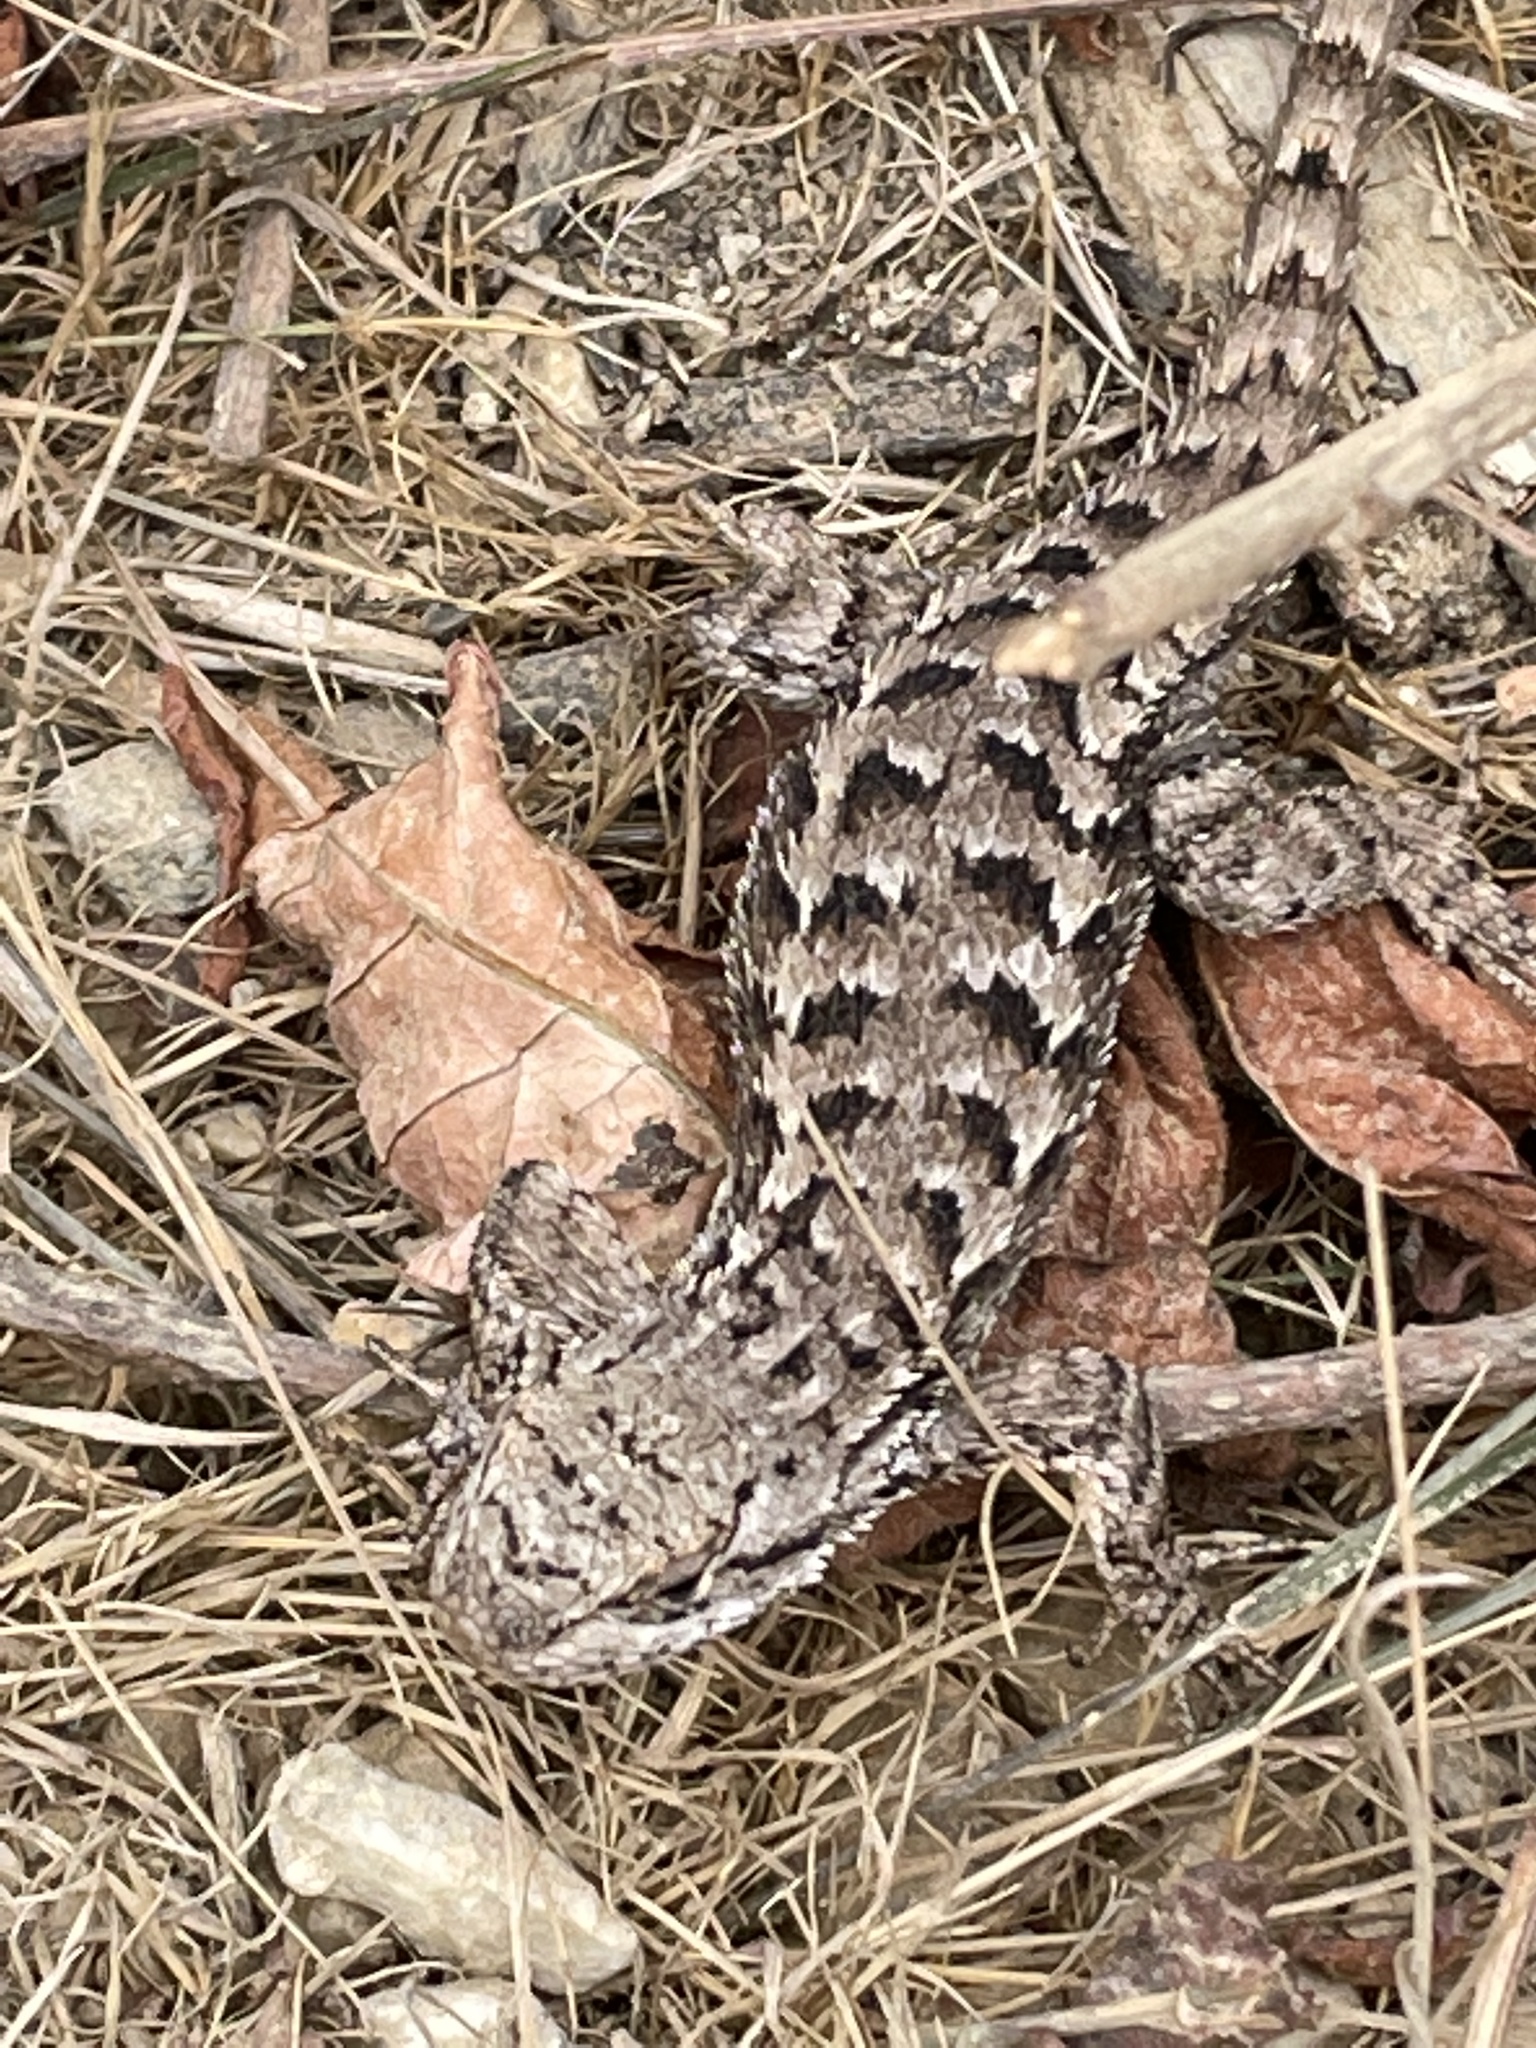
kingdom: Animalia
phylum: Chordata
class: Squamata
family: Phrynosomatidae
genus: Sceloporus
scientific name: Sceloporus occidentalis
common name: Western fence lizard
